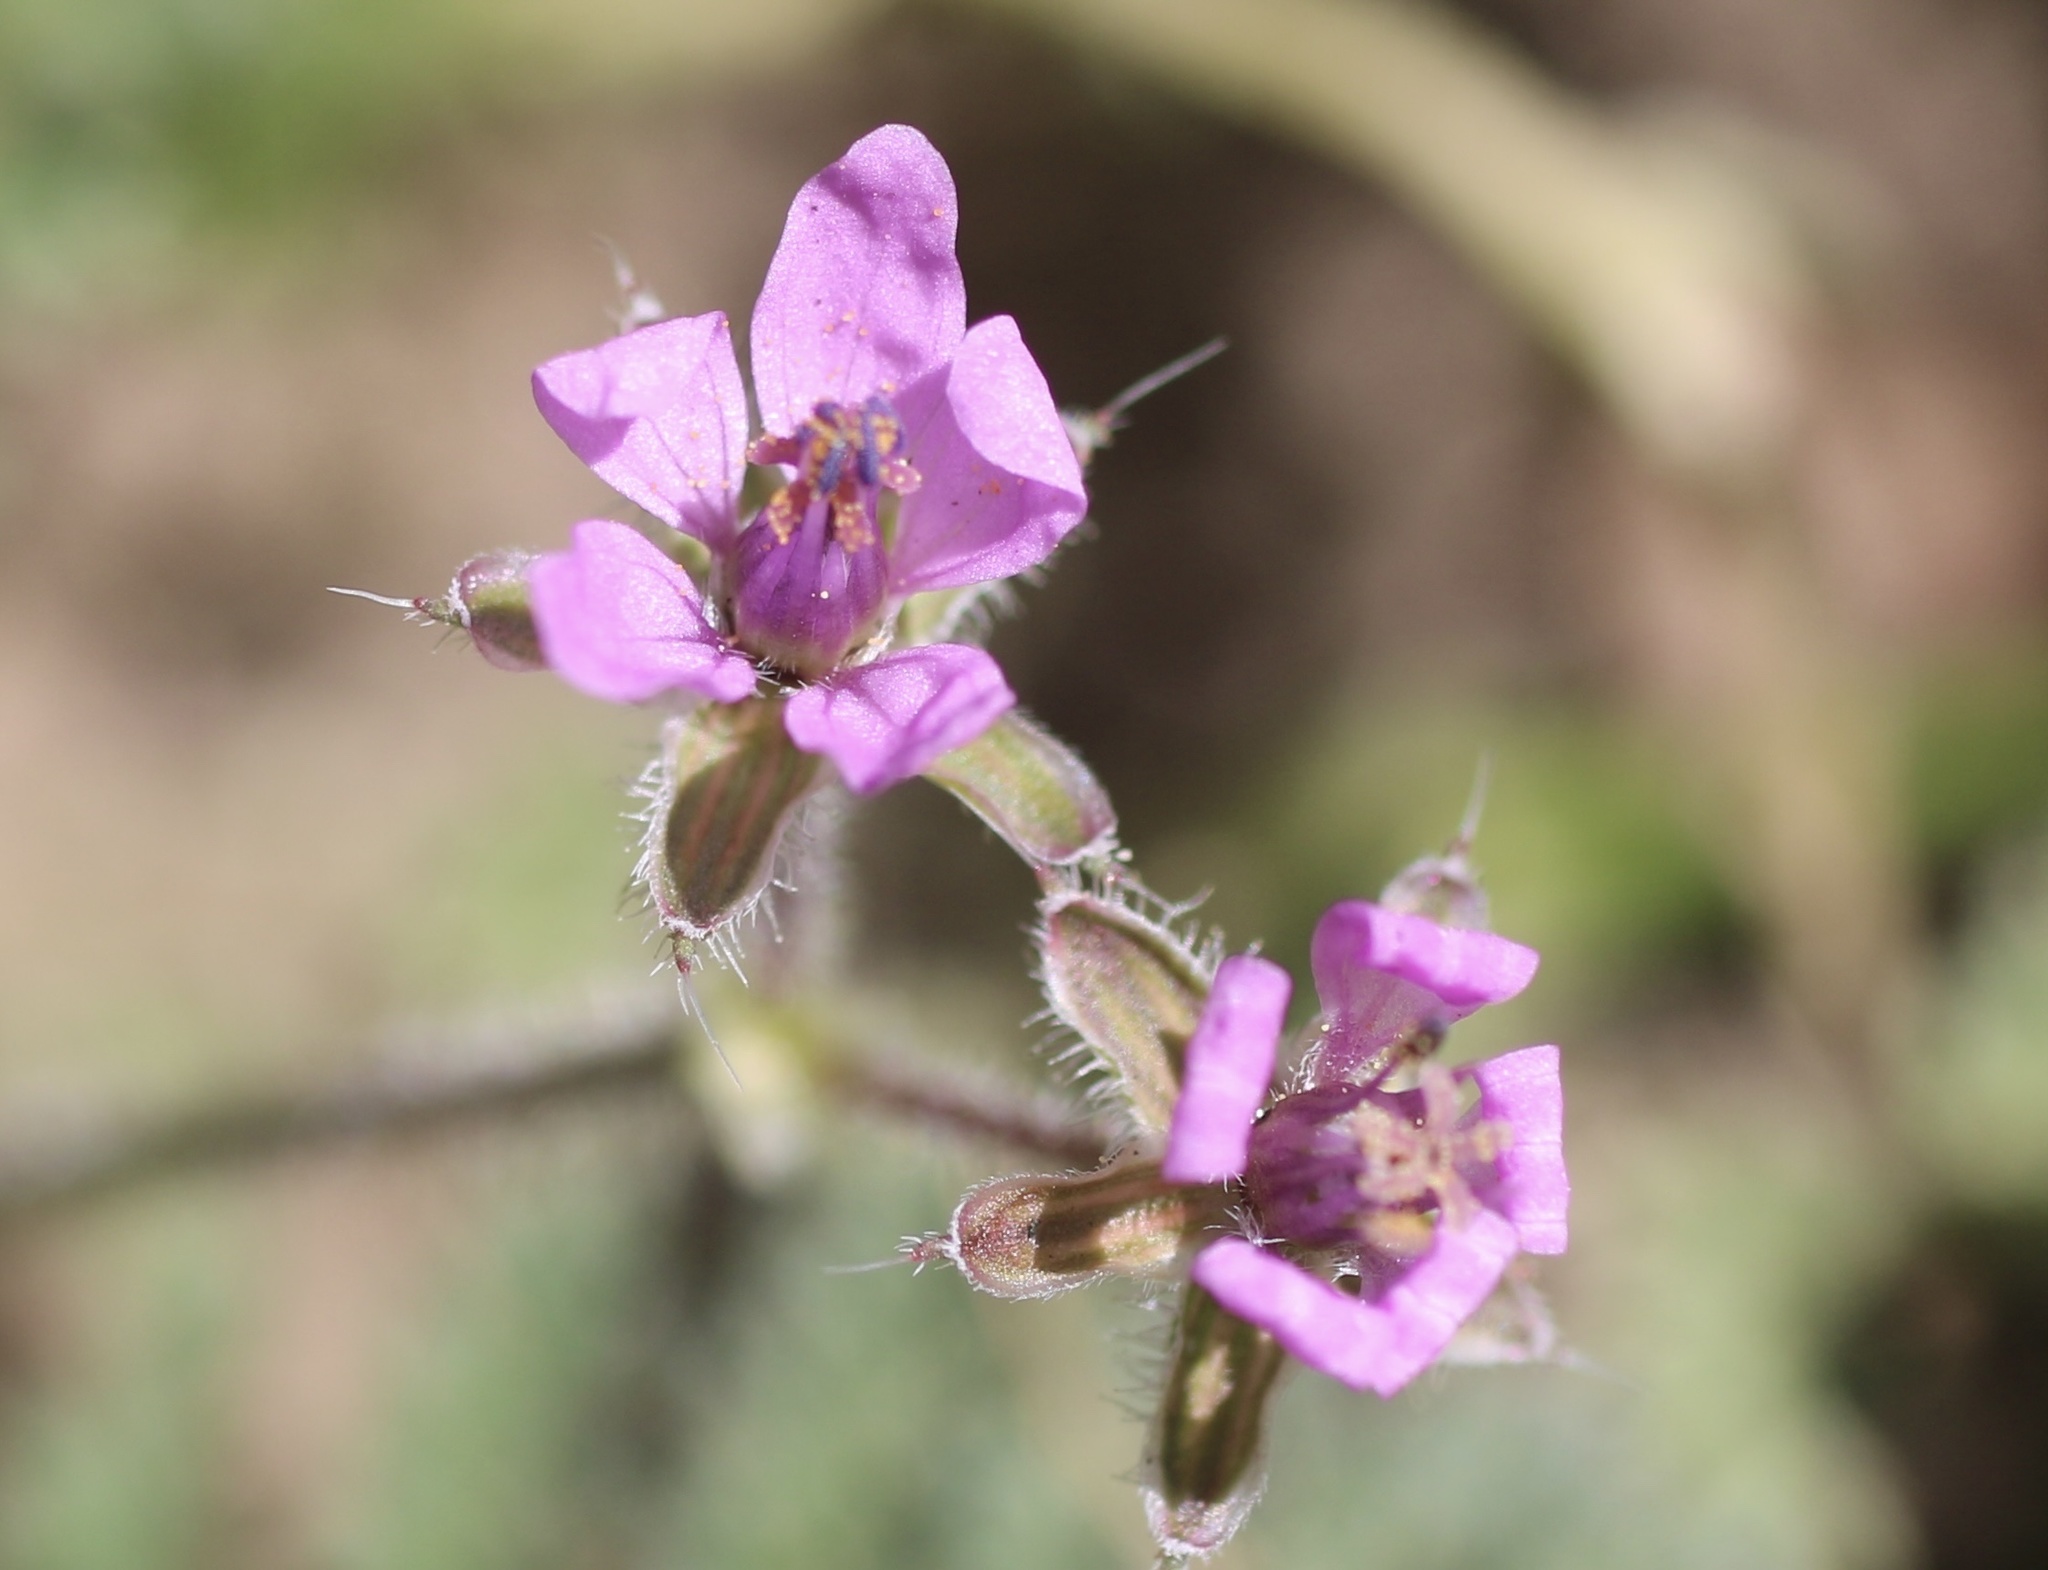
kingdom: Plantae
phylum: Tracheophyta
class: Magnoliopsida
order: Geraniales
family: Geraniaceae
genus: Erodium
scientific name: Erodium cicutarium
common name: Common stork's-bill
